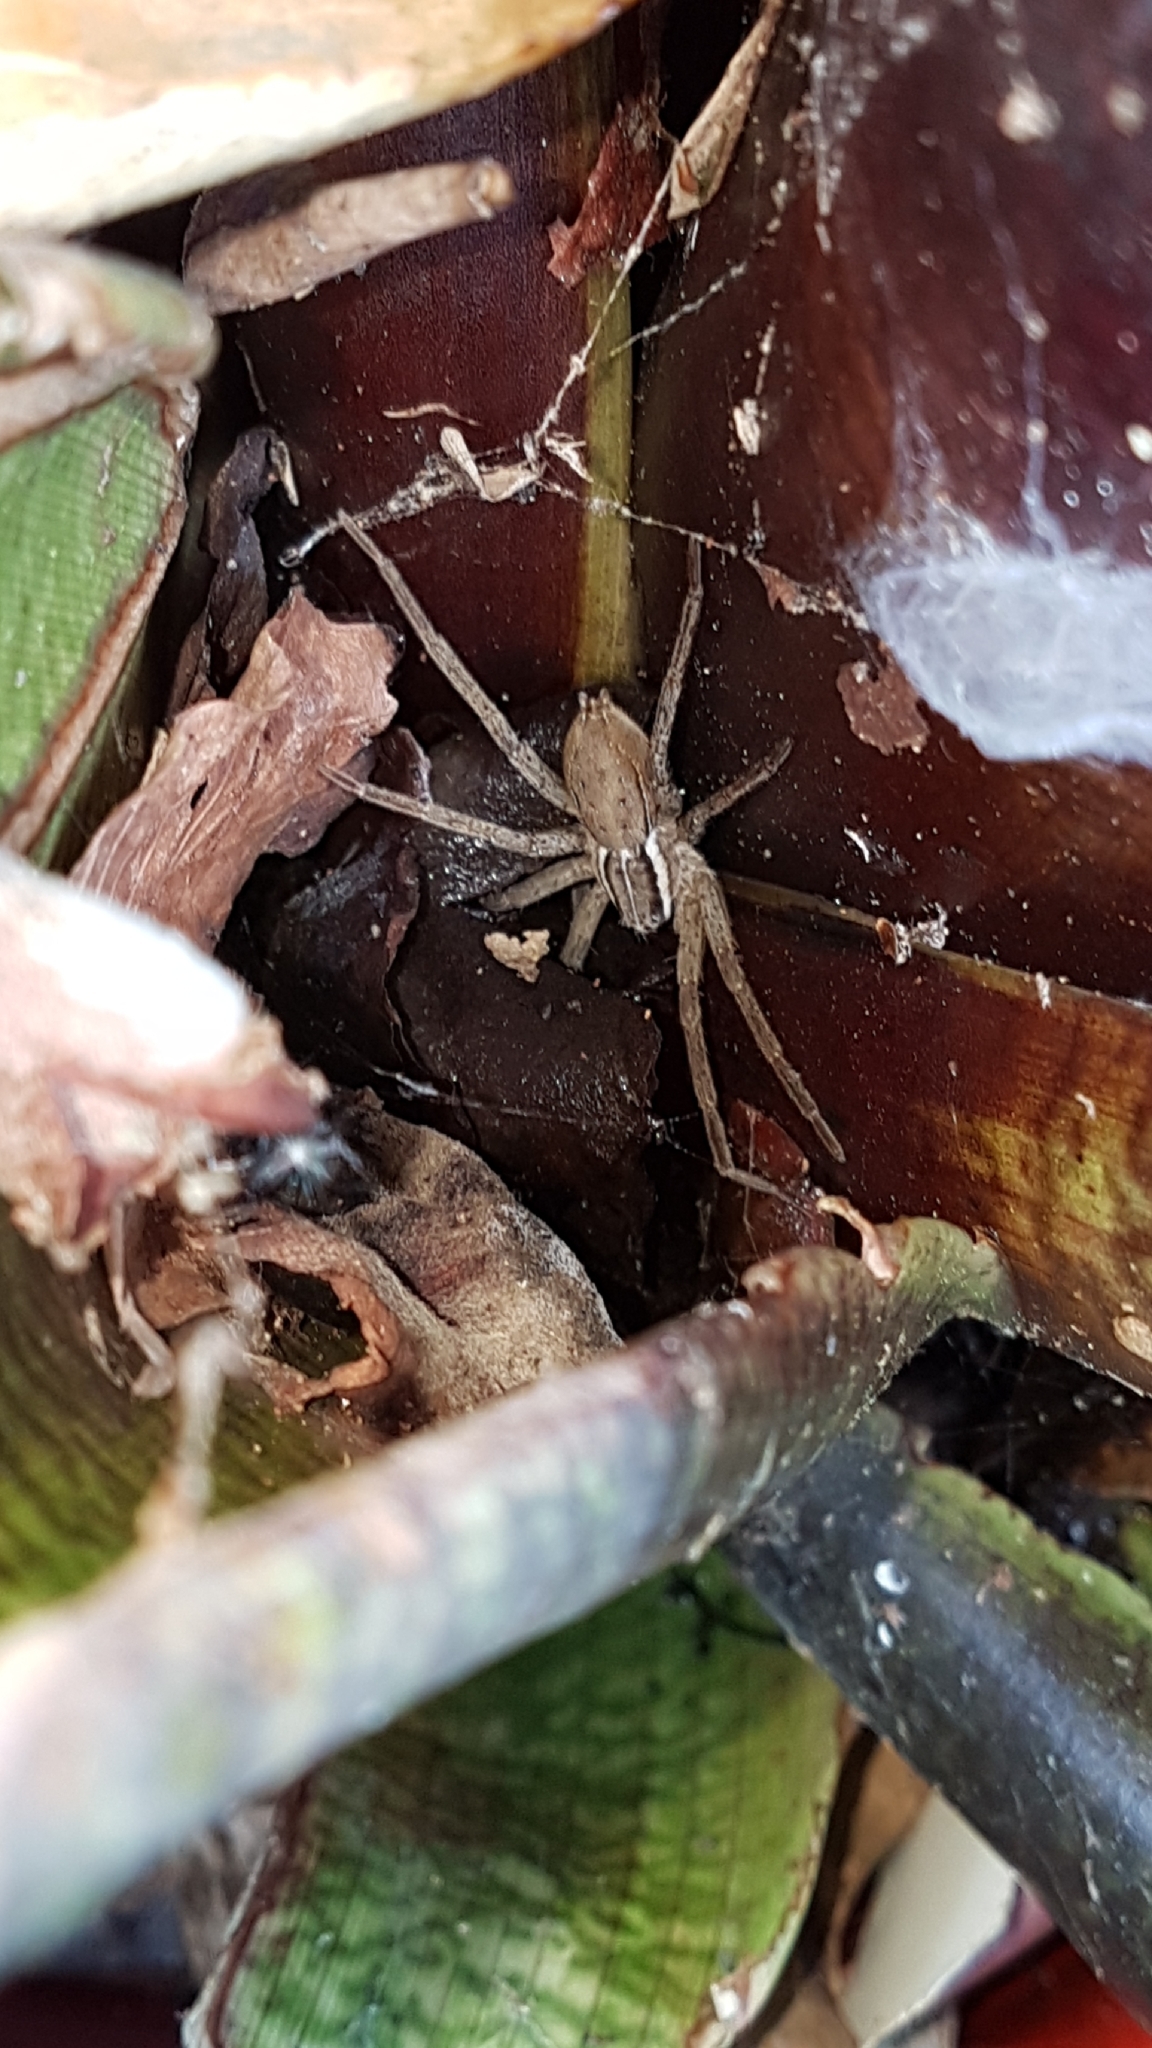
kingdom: Animalia
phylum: Arthropoda
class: Arachnida
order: Araneae
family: Pisauridae
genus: Dolomedes
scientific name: Dolomedes minor
